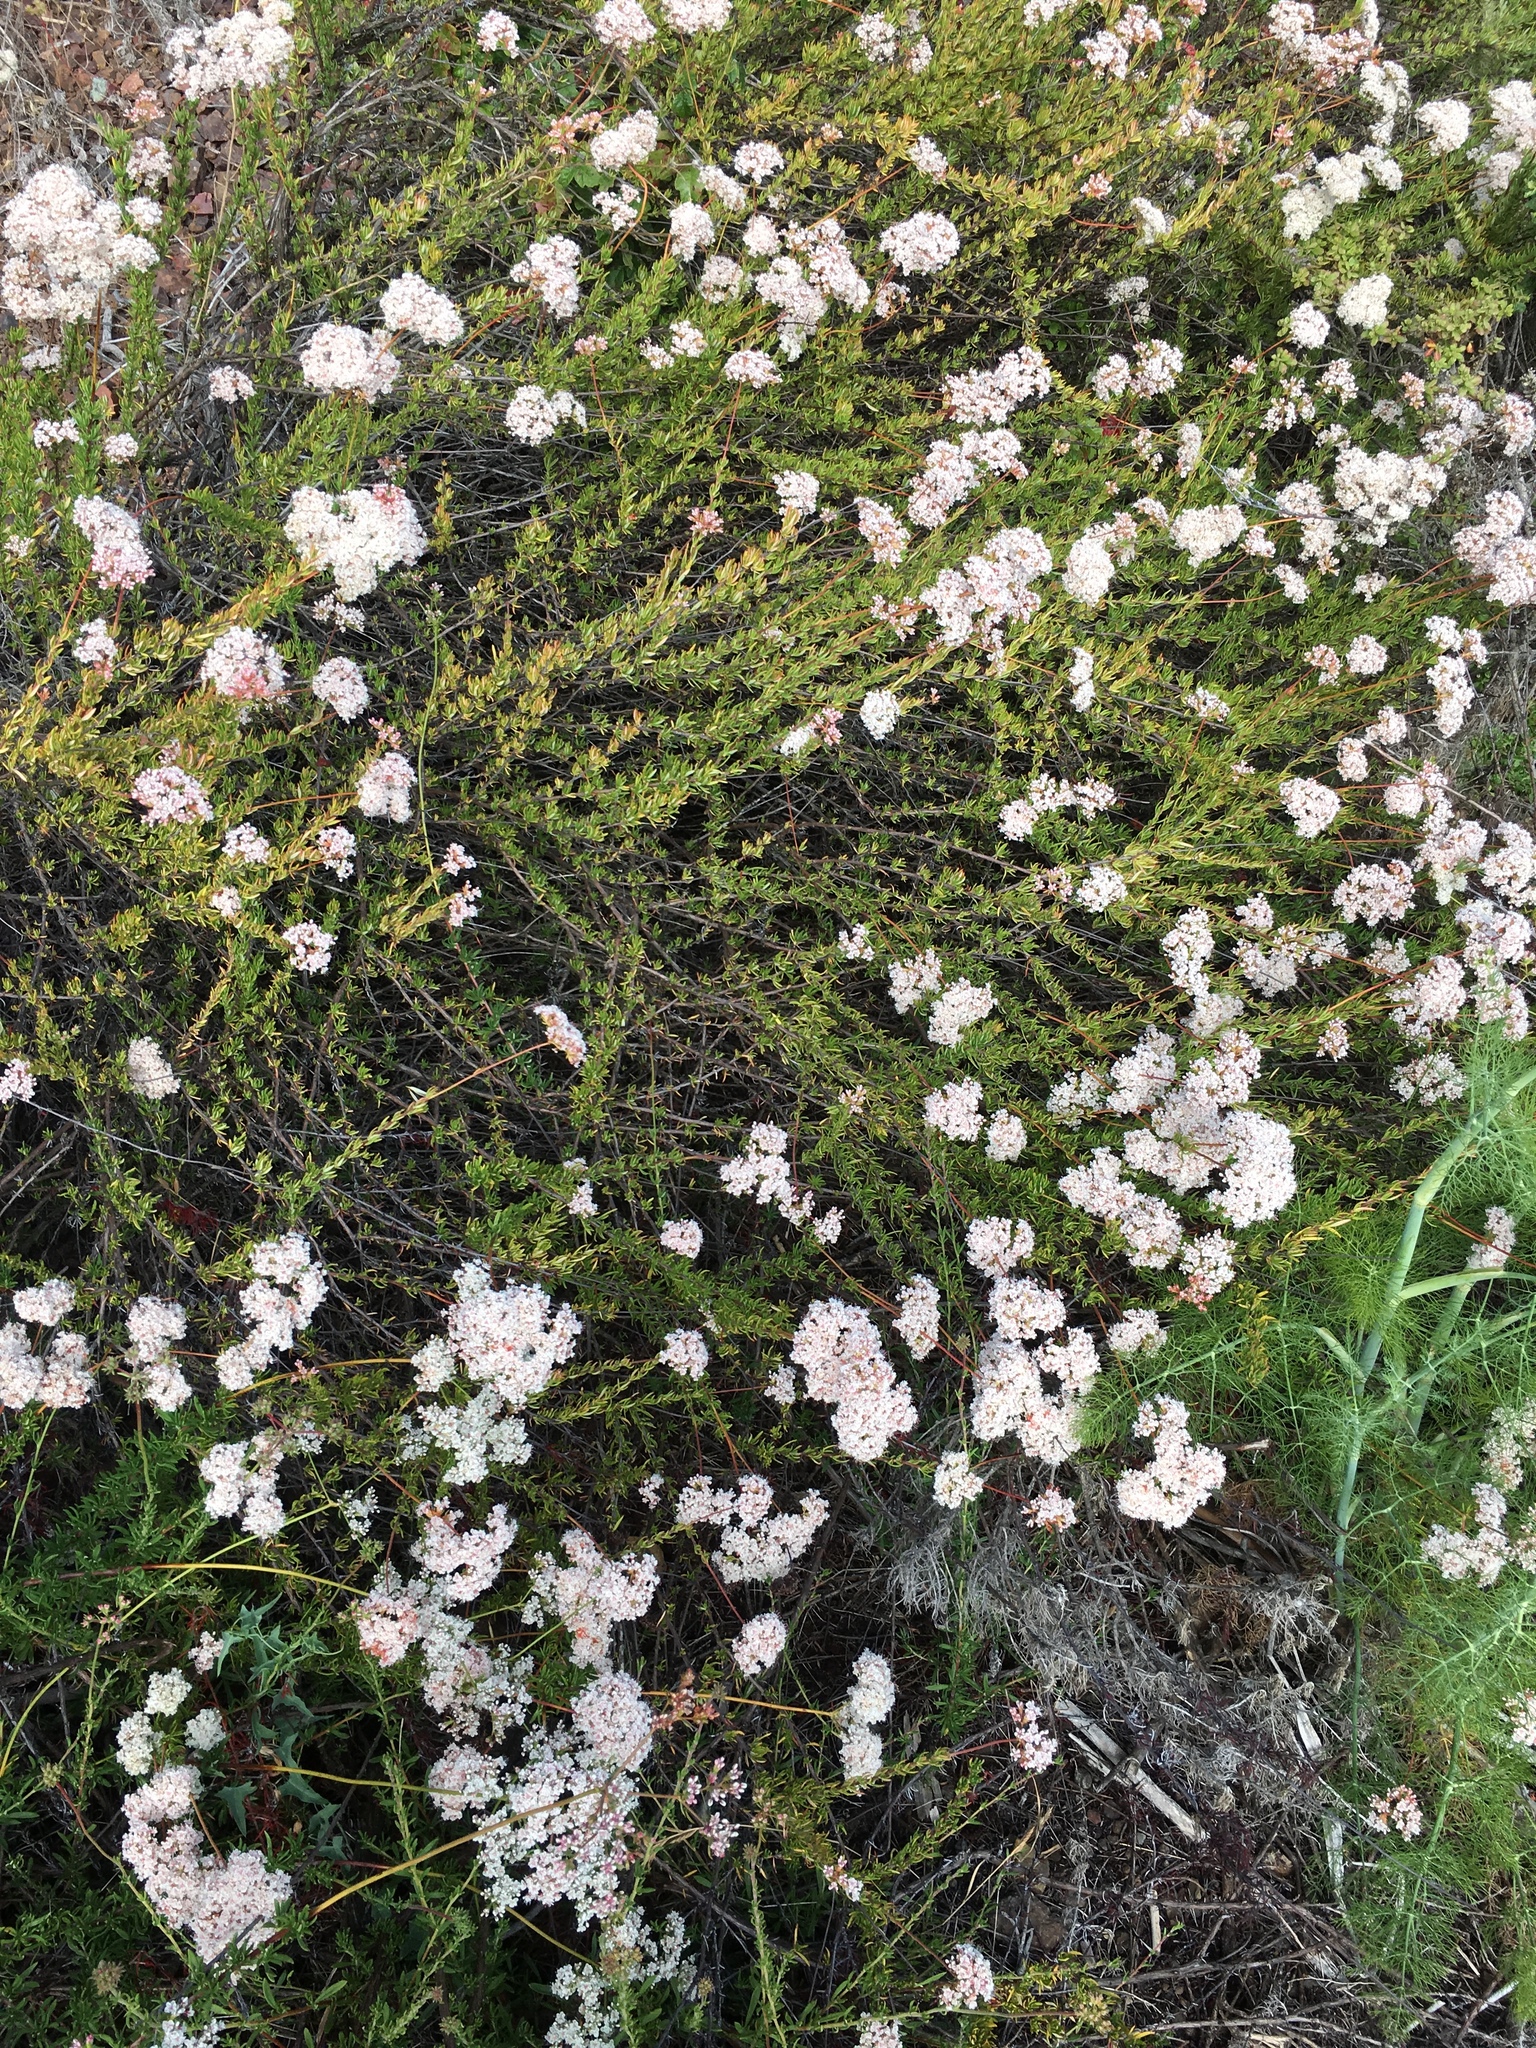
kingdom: Plantae
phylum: Tracheophyta
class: Magnoliopsida
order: Caryophyllales
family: Polygonaceae
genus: Eriogonum
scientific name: Eriogonum fasciculatum
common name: California wild buckwheat
